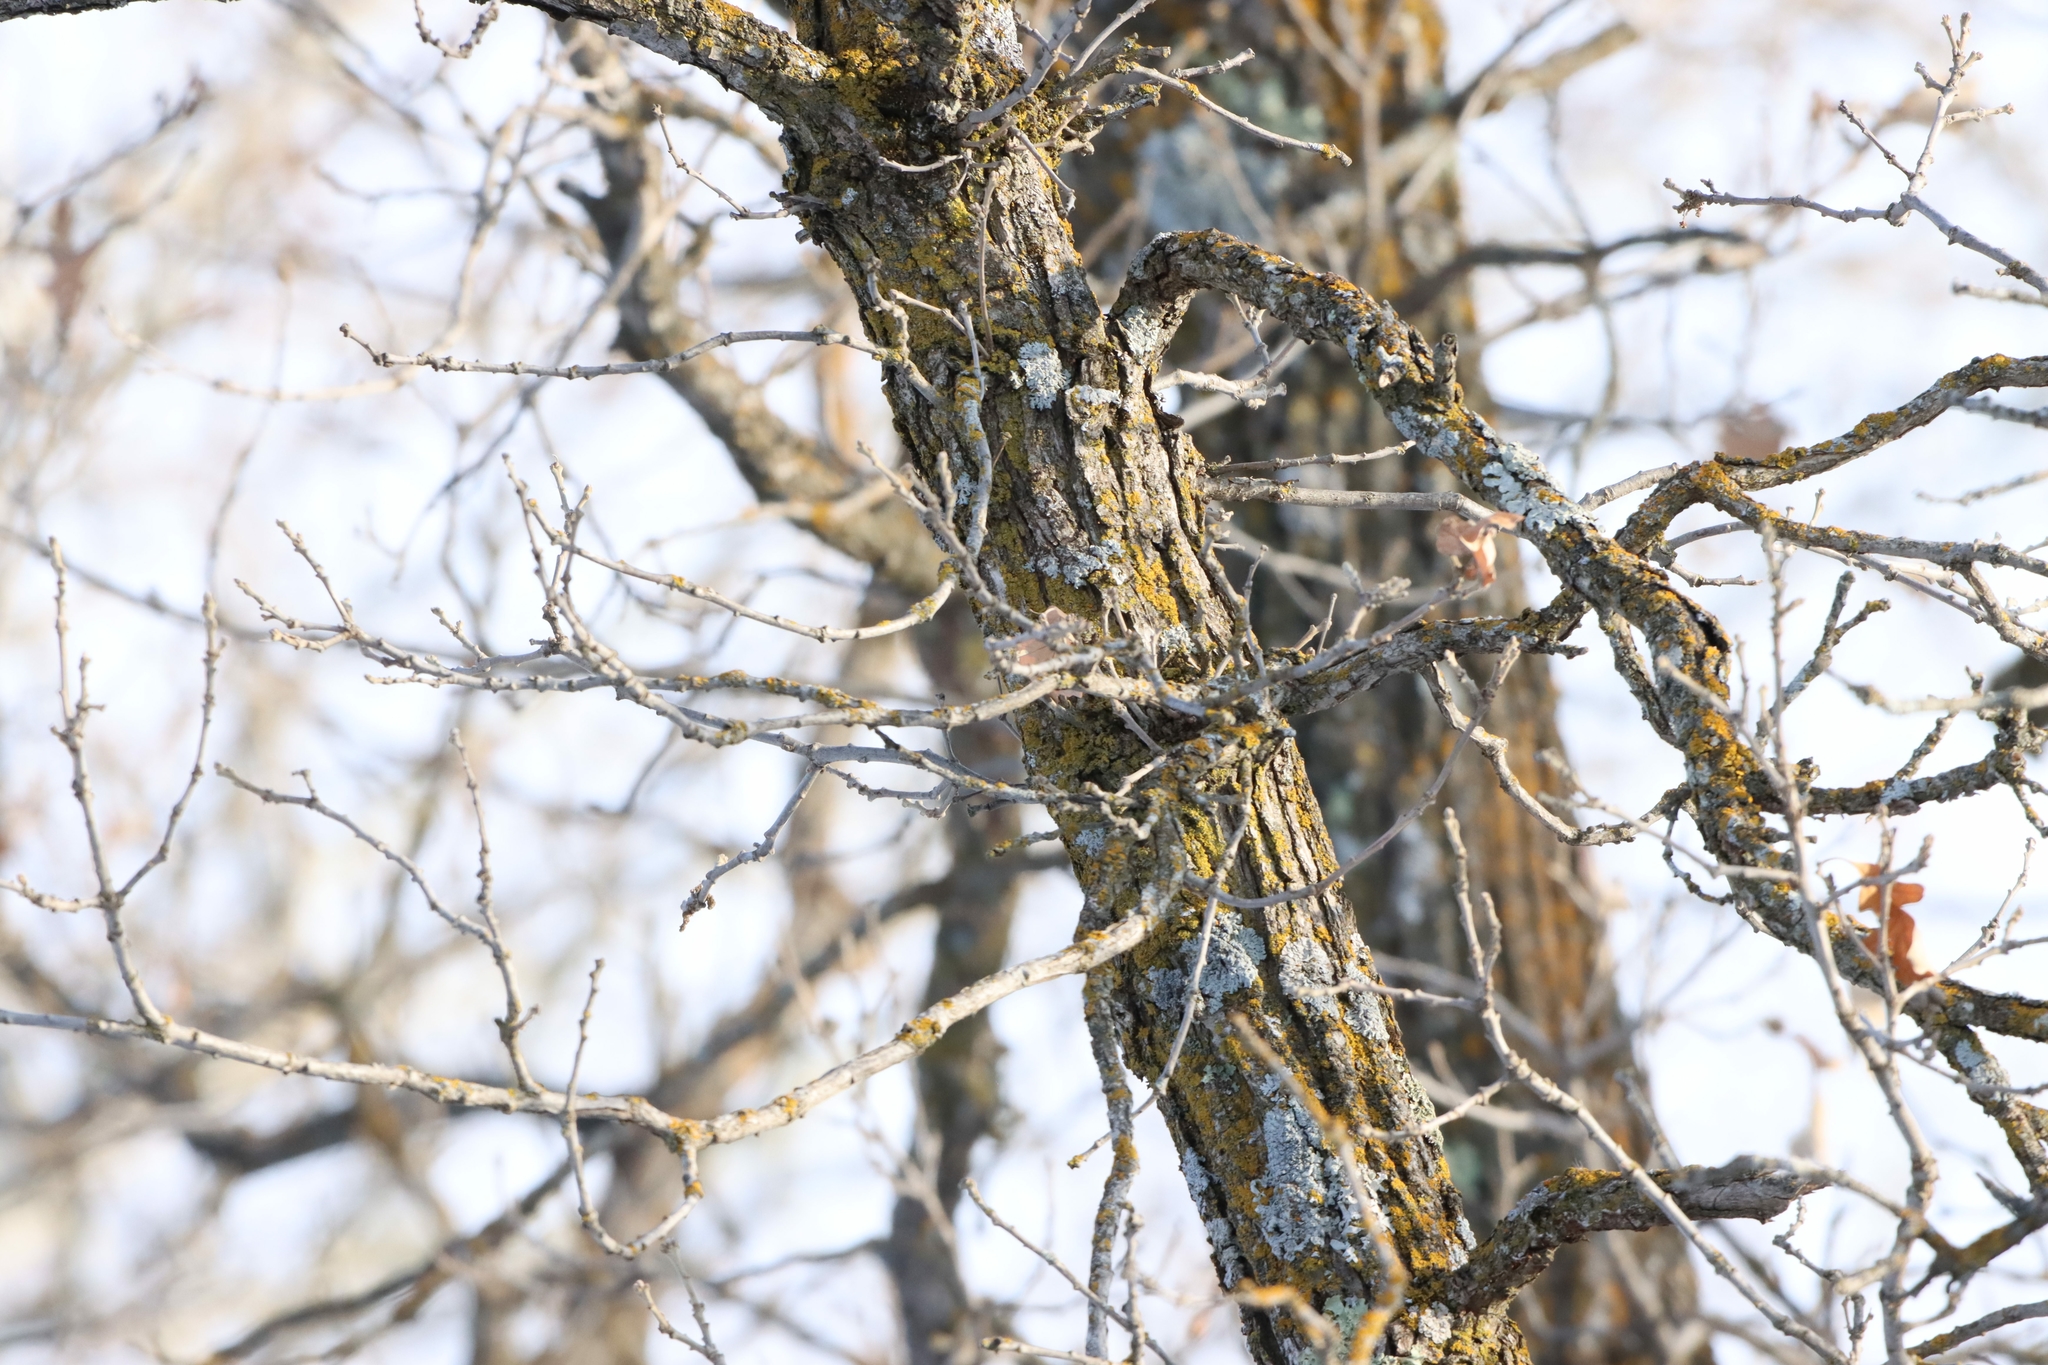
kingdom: Plantae
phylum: Tracheophyta
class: Magnoliopsida
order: Fagales
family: Fagaceae
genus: Quercus
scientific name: Quercus macrocarpa
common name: Bur oak
